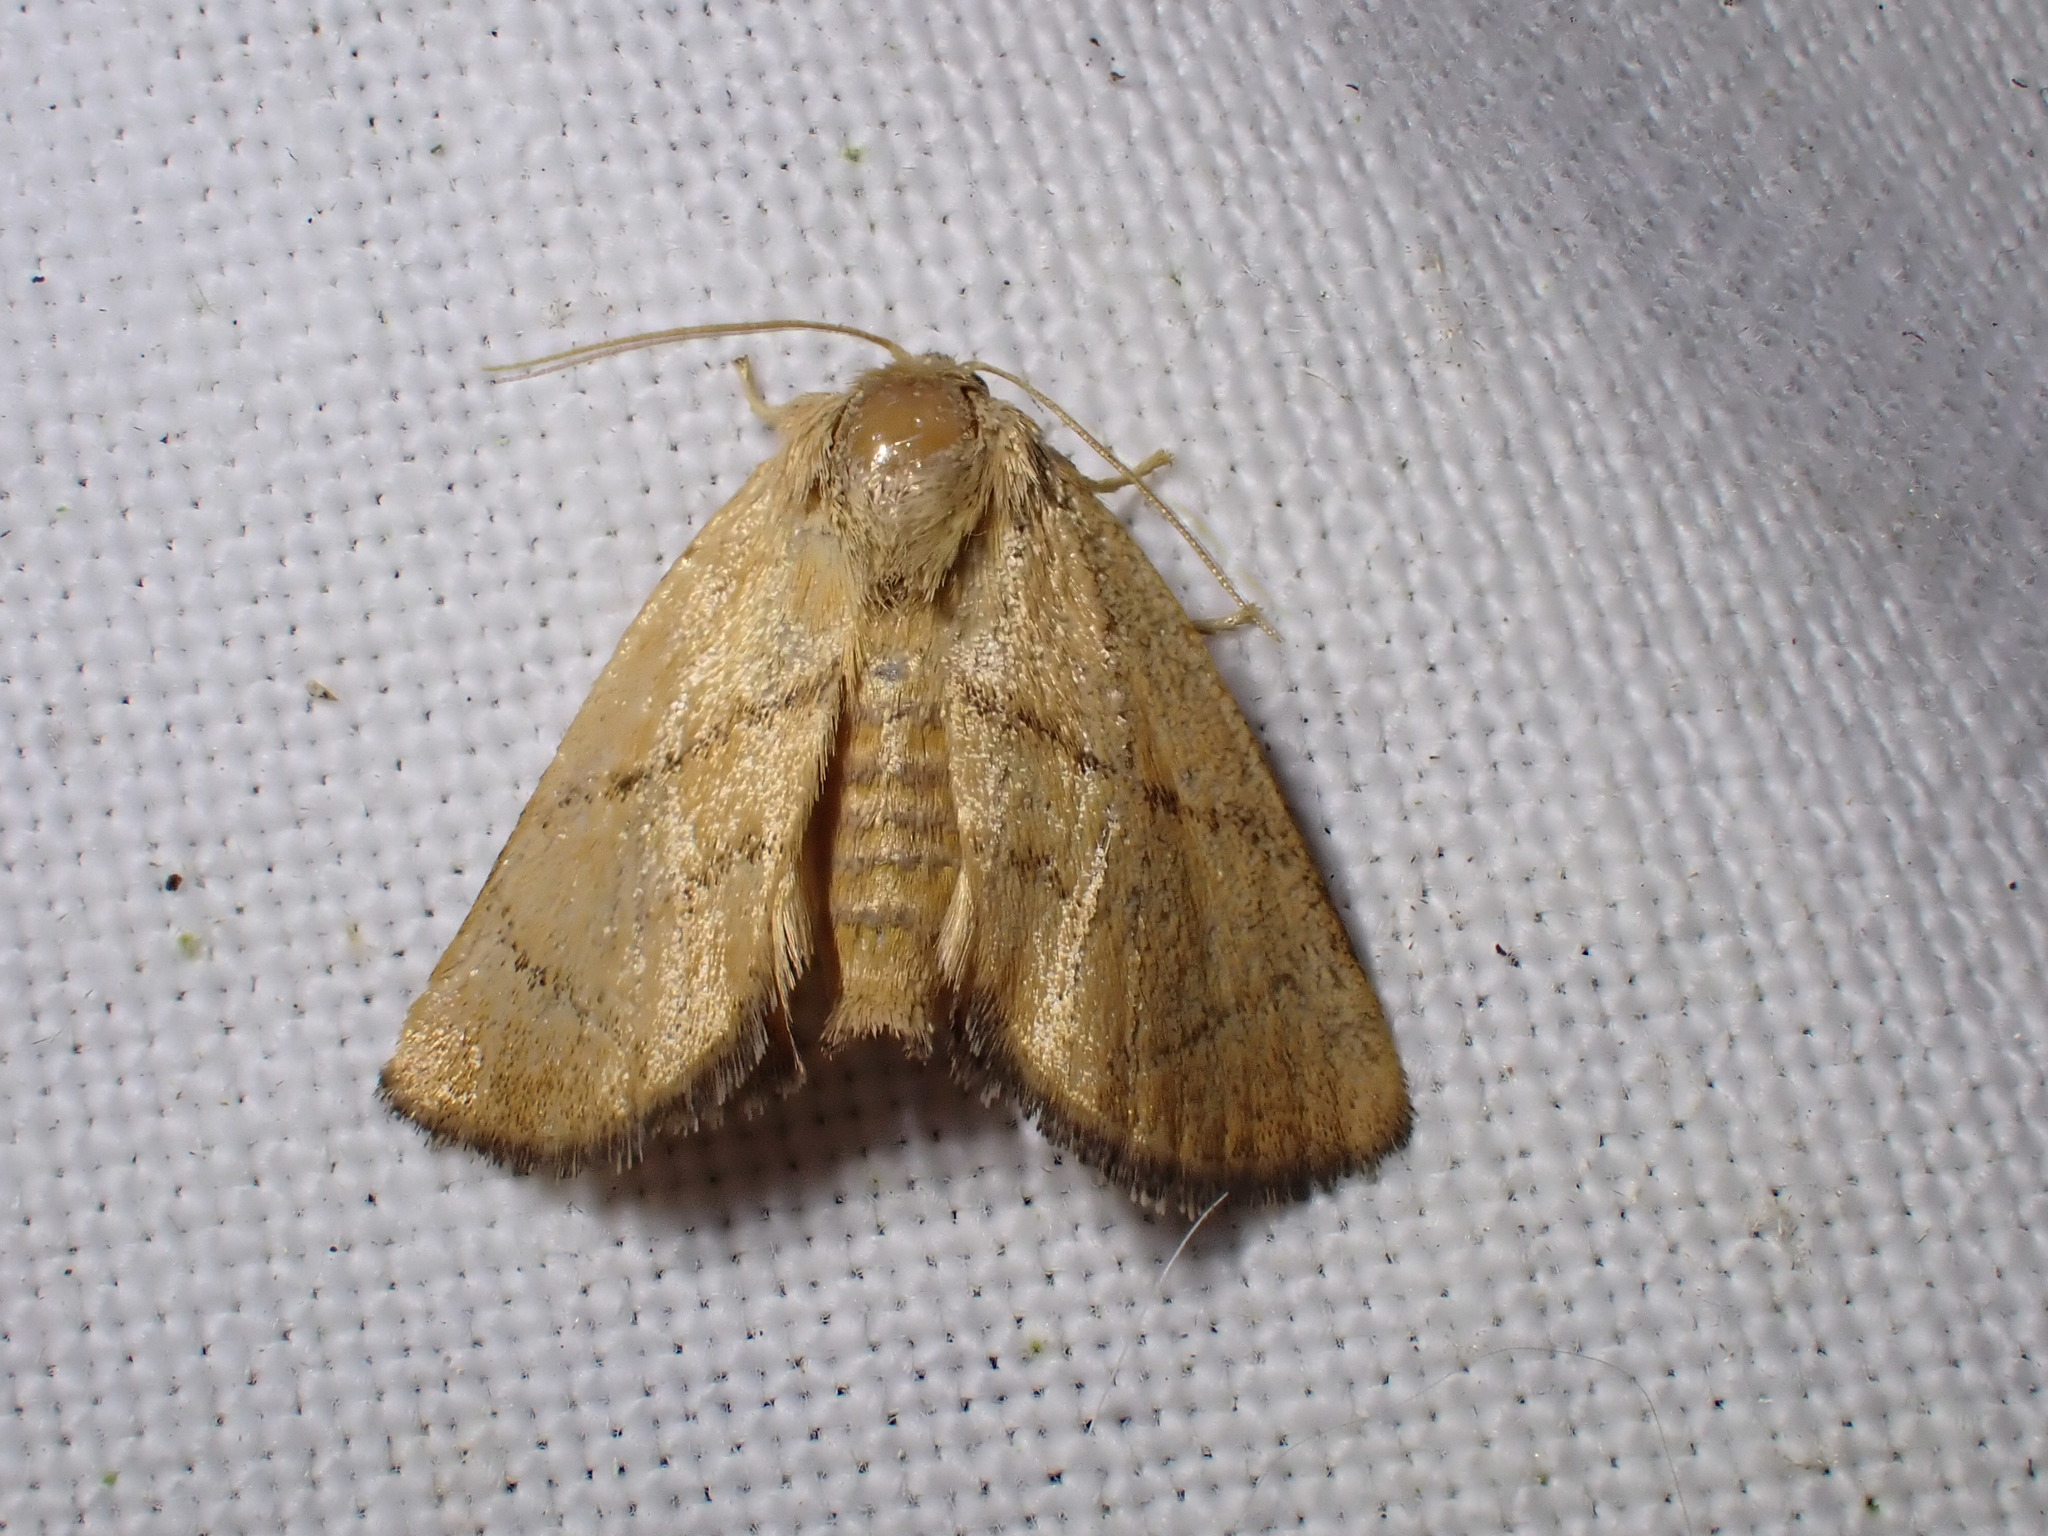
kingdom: Animalia
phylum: Arthropoda
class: Insecta
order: Lepidoptera
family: Limacodidae
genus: Apoda
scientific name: Apoda limacodes
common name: Festoon
